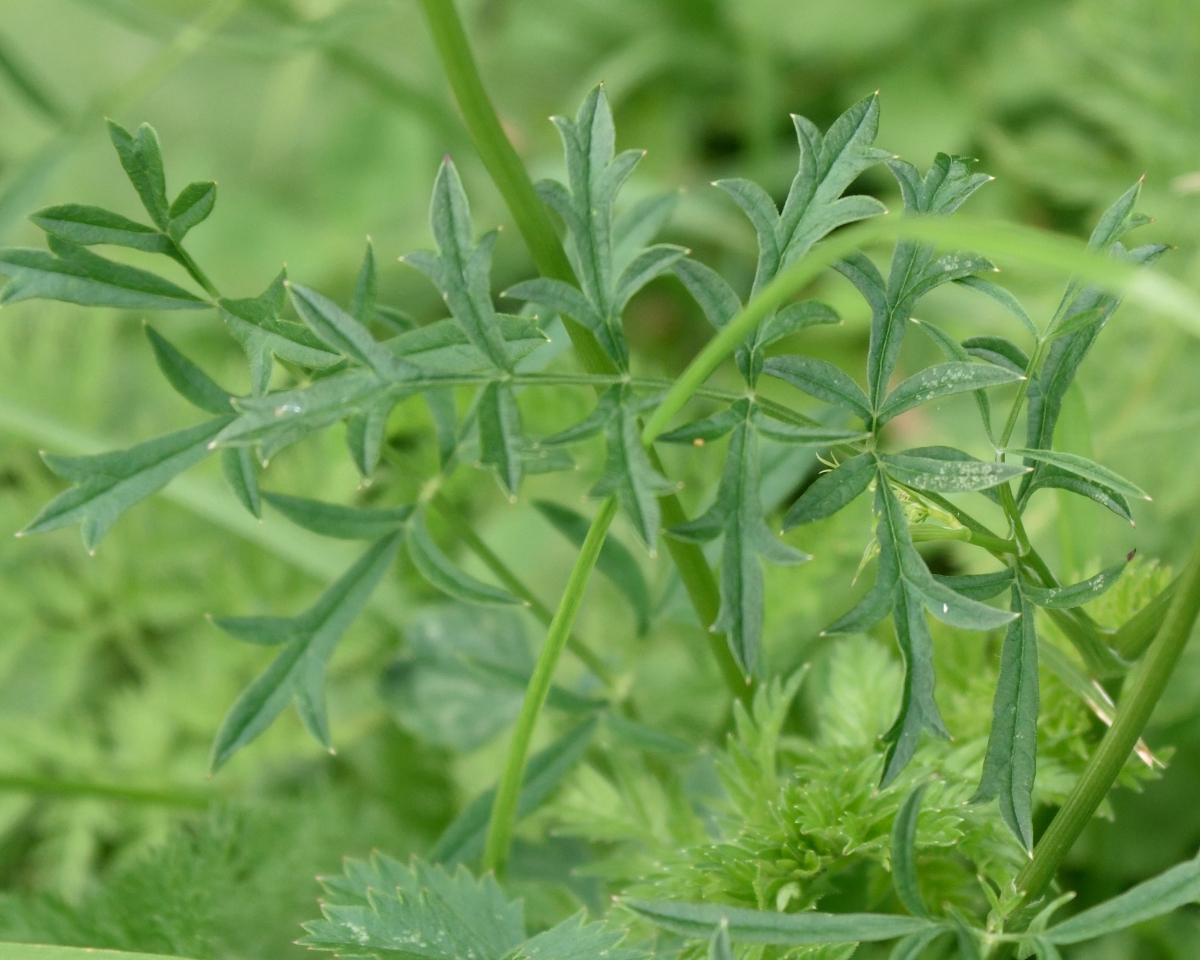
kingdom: Plantae
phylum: Tracheophyta
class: Magnoliopsida
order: Apiales
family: Apiaceae
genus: Pimpinella
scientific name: Pimpinella saxifraga
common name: Burnet-saxifrage
